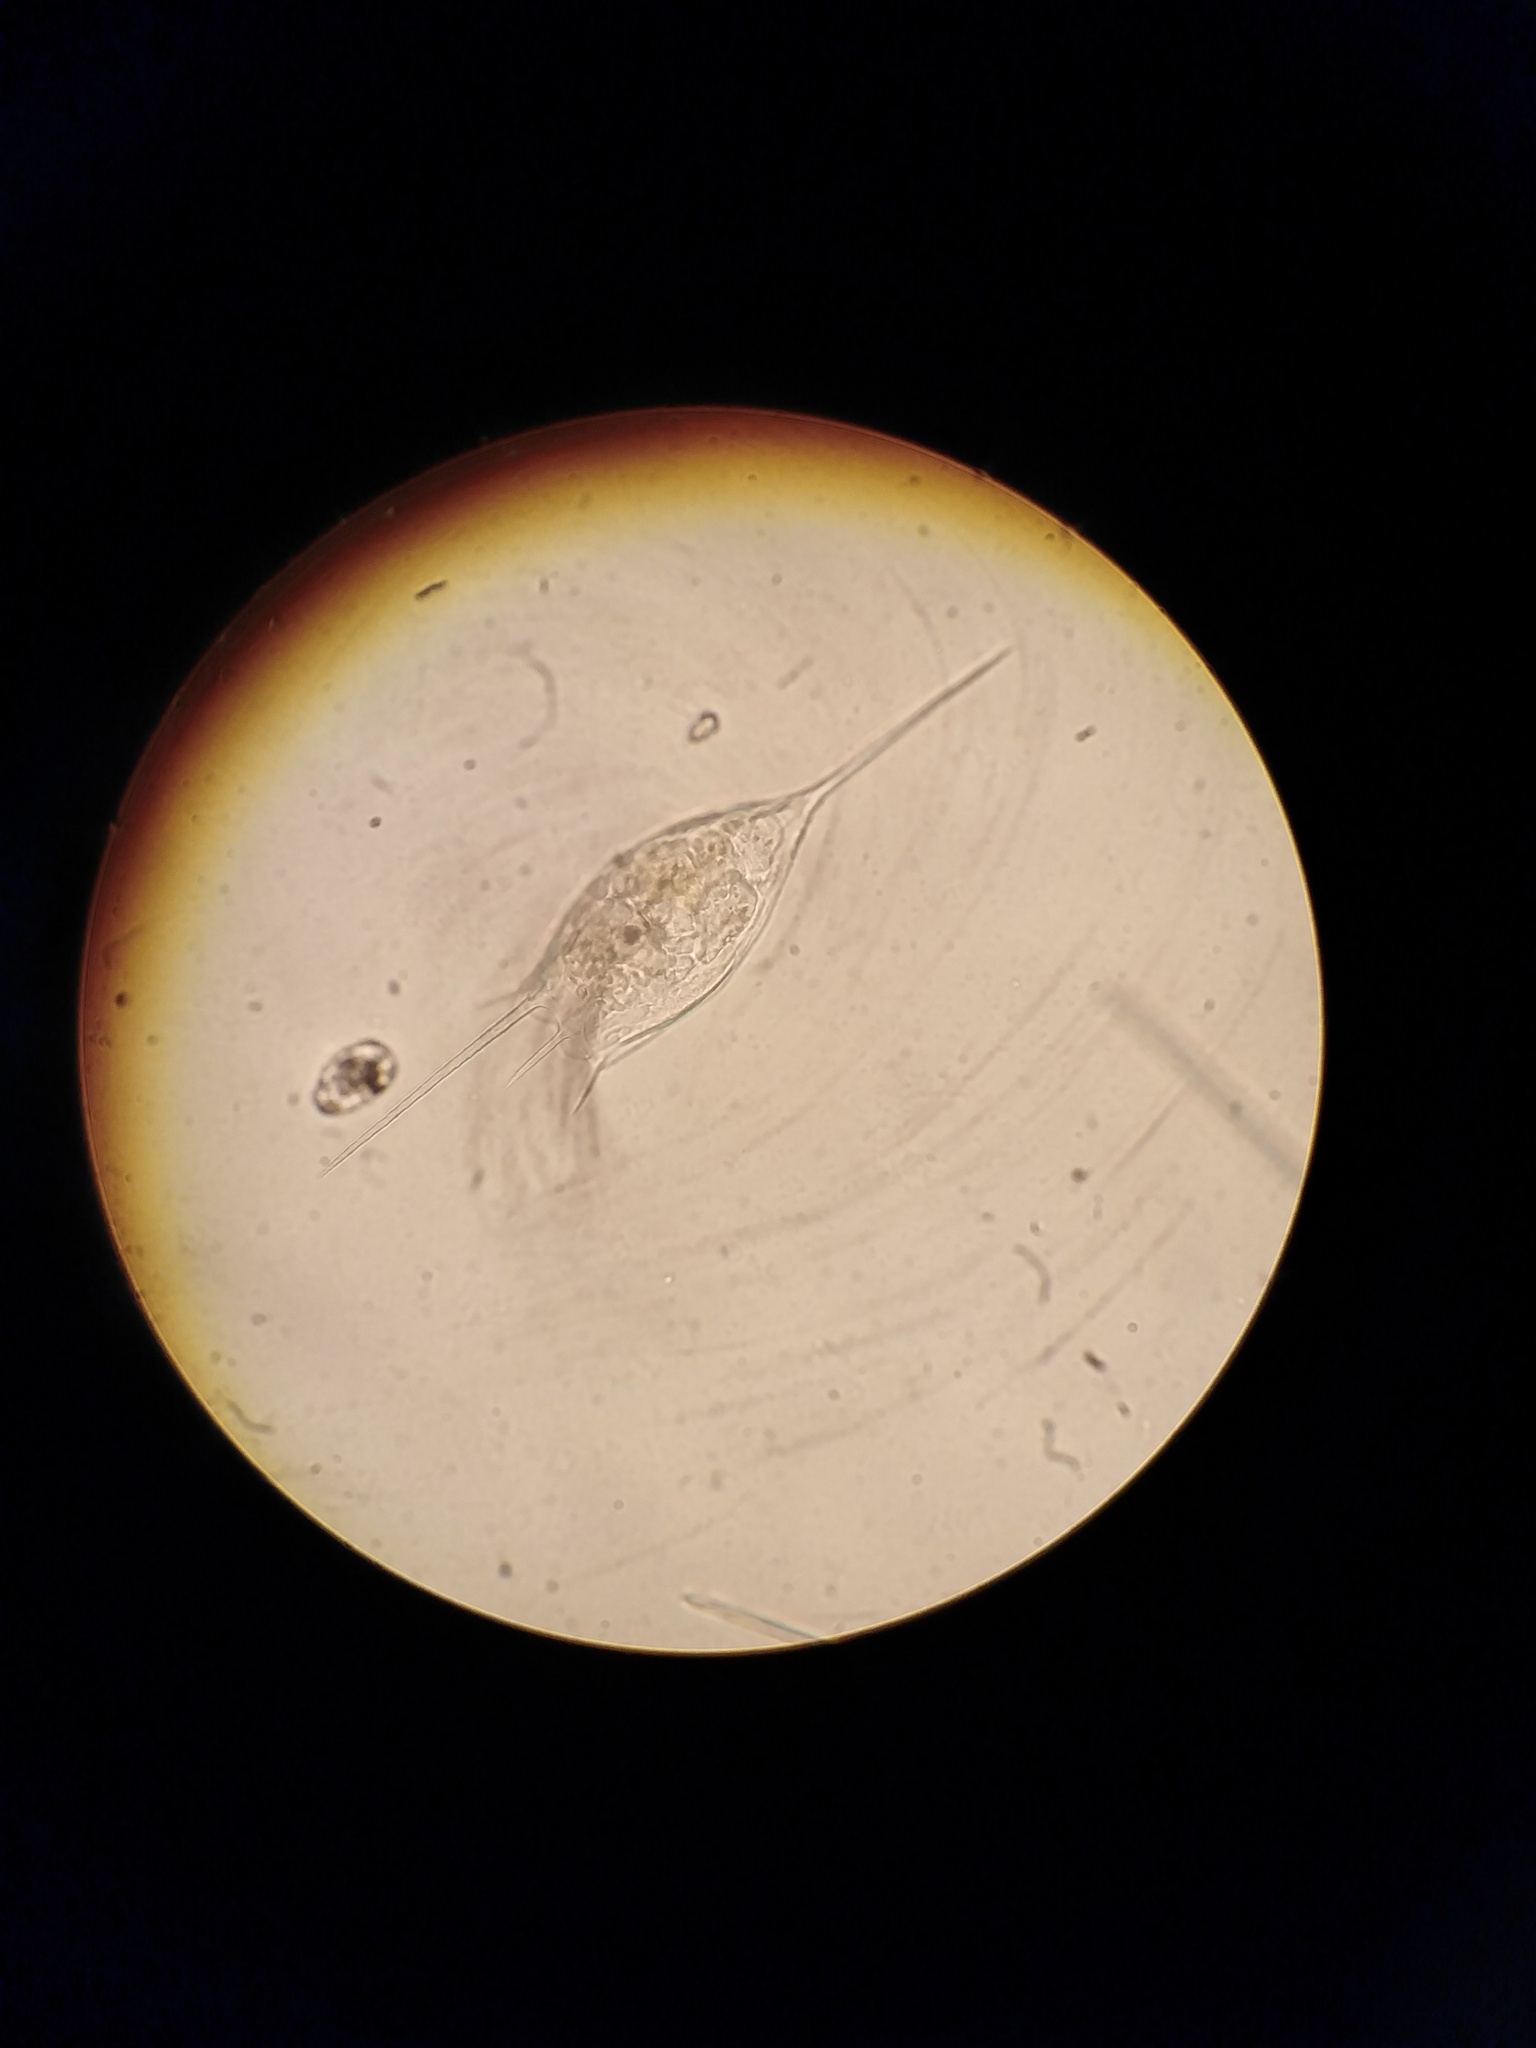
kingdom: Animalia
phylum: Rotifera
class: Eurotatoria
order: Ploima
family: Brachionidae
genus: Kellicottia
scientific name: Kellicottia bostoniensis
